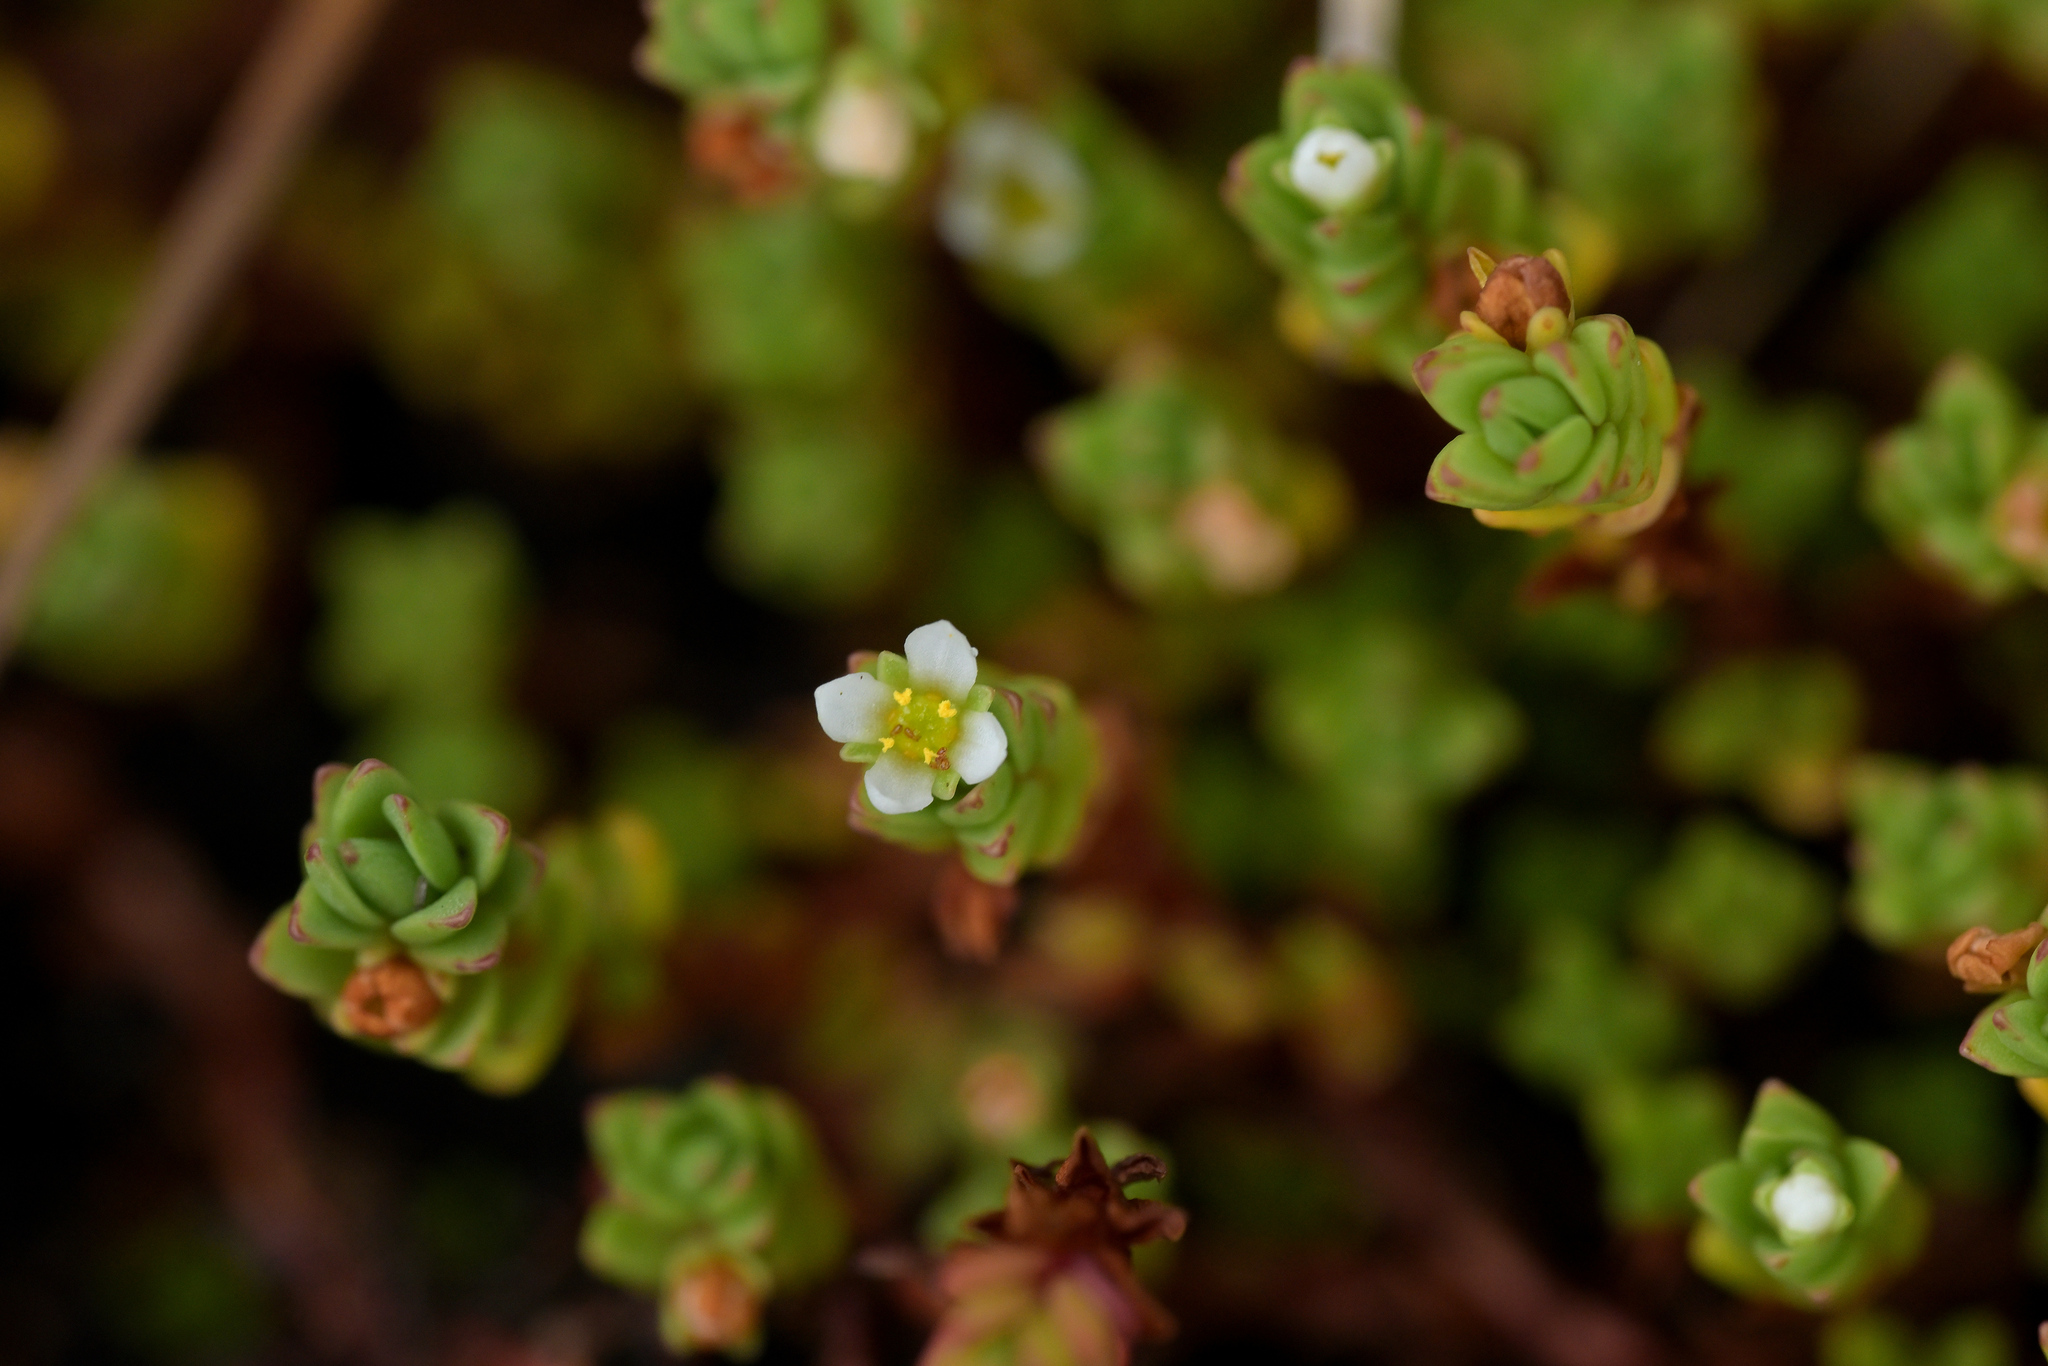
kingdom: Plantae
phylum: Tracheophyta
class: Magnoliopsida
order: Saxifragales
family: Crassulaceae
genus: Crassula
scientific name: Crassula moschata
